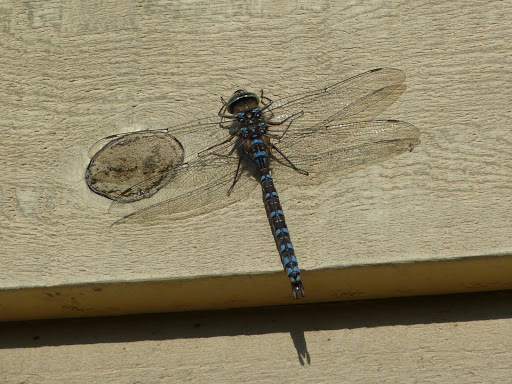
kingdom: Animalia
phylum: Arthropoda
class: Insecta
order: Odonata
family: Aeshnidae
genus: Aeshna
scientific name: Aeshna interrupta
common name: Variable darner
